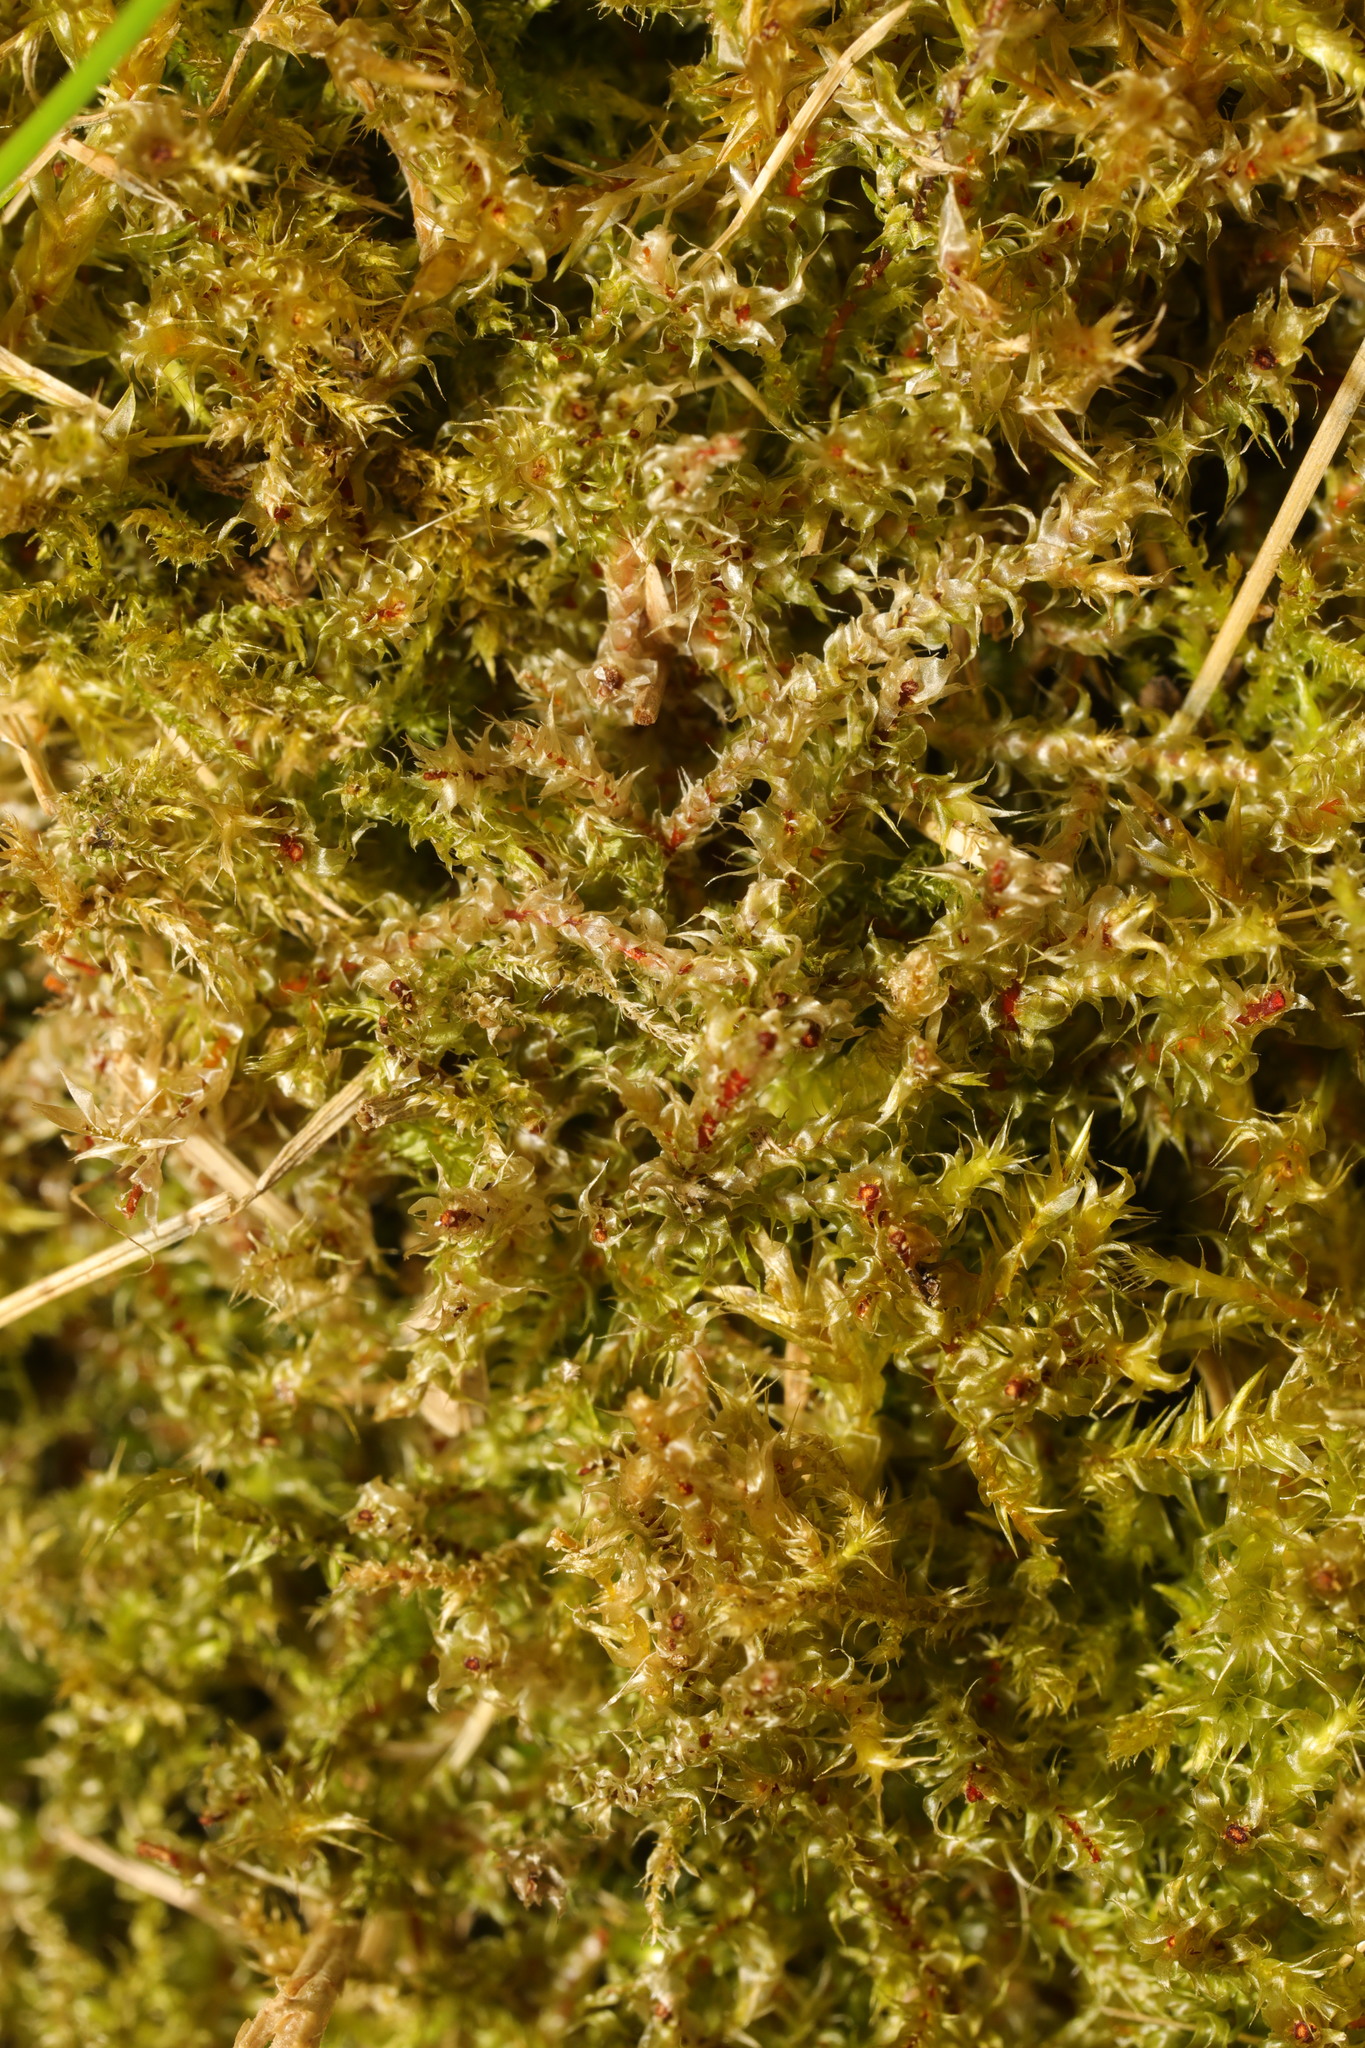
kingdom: Plantae
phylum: Bryophyta
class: Bryopsida
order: Hypnales
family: Hylocomiaceae
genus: Rhytidiadelphus
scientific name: Rhytidiadelphus squarrosus
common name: Springy turf-moss
